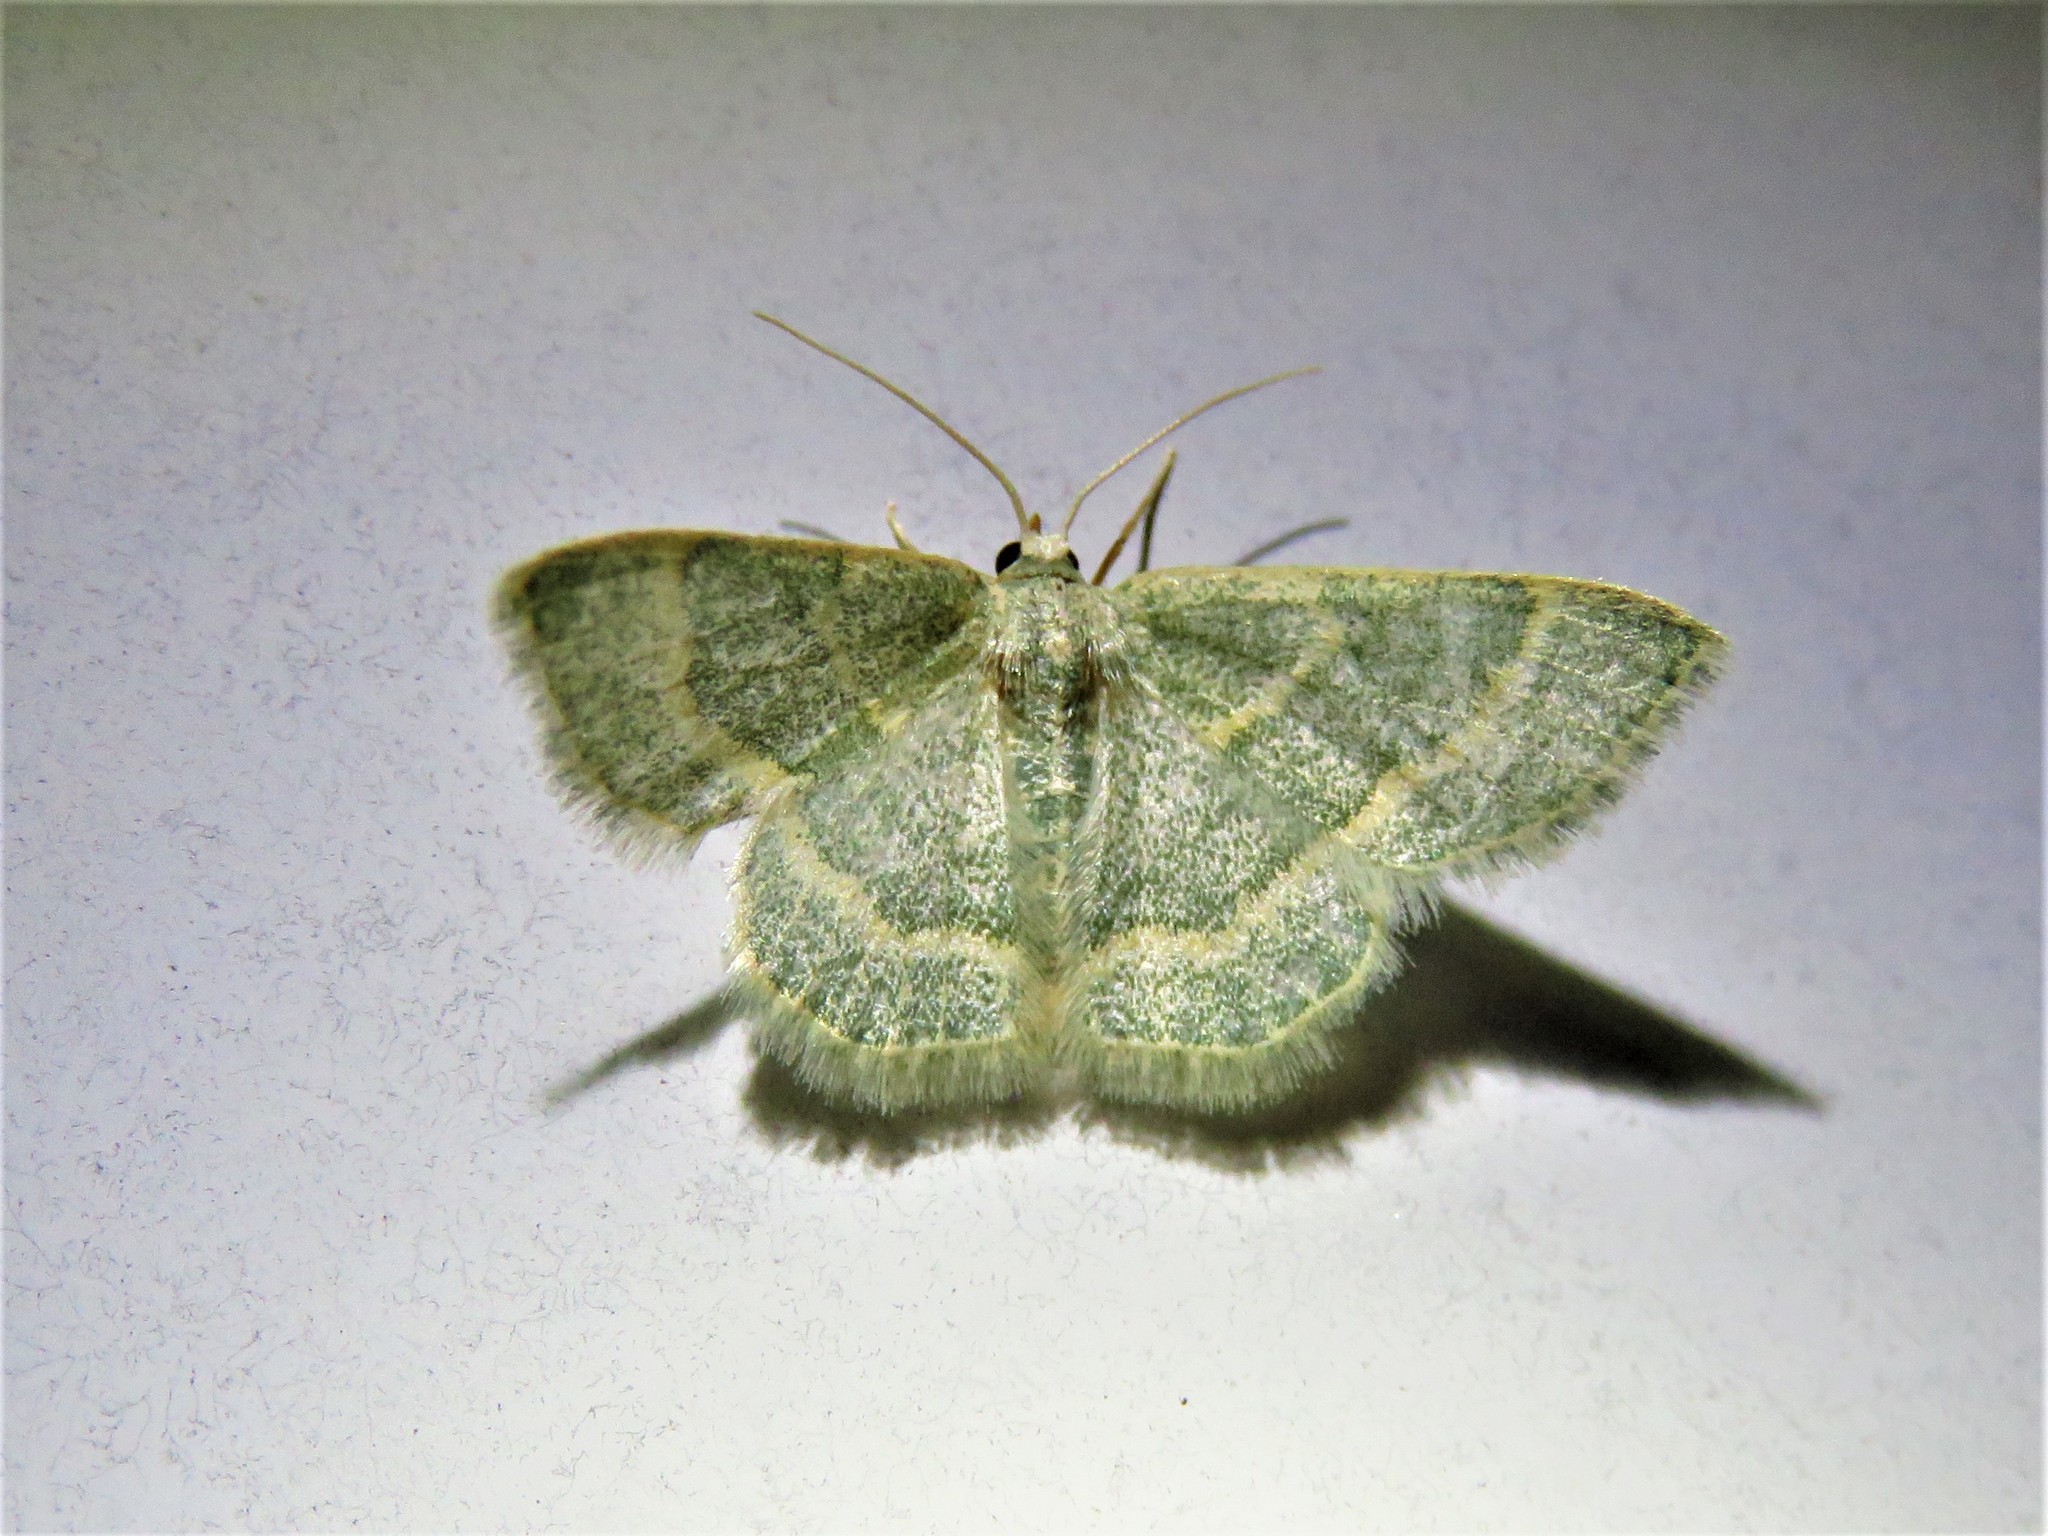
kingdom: Animalia
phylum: Arthropoda
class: Insecta
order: Lepidoptera
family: Geometridae
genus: Chlorochlamys
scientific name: Chlorochlamys appellaria
